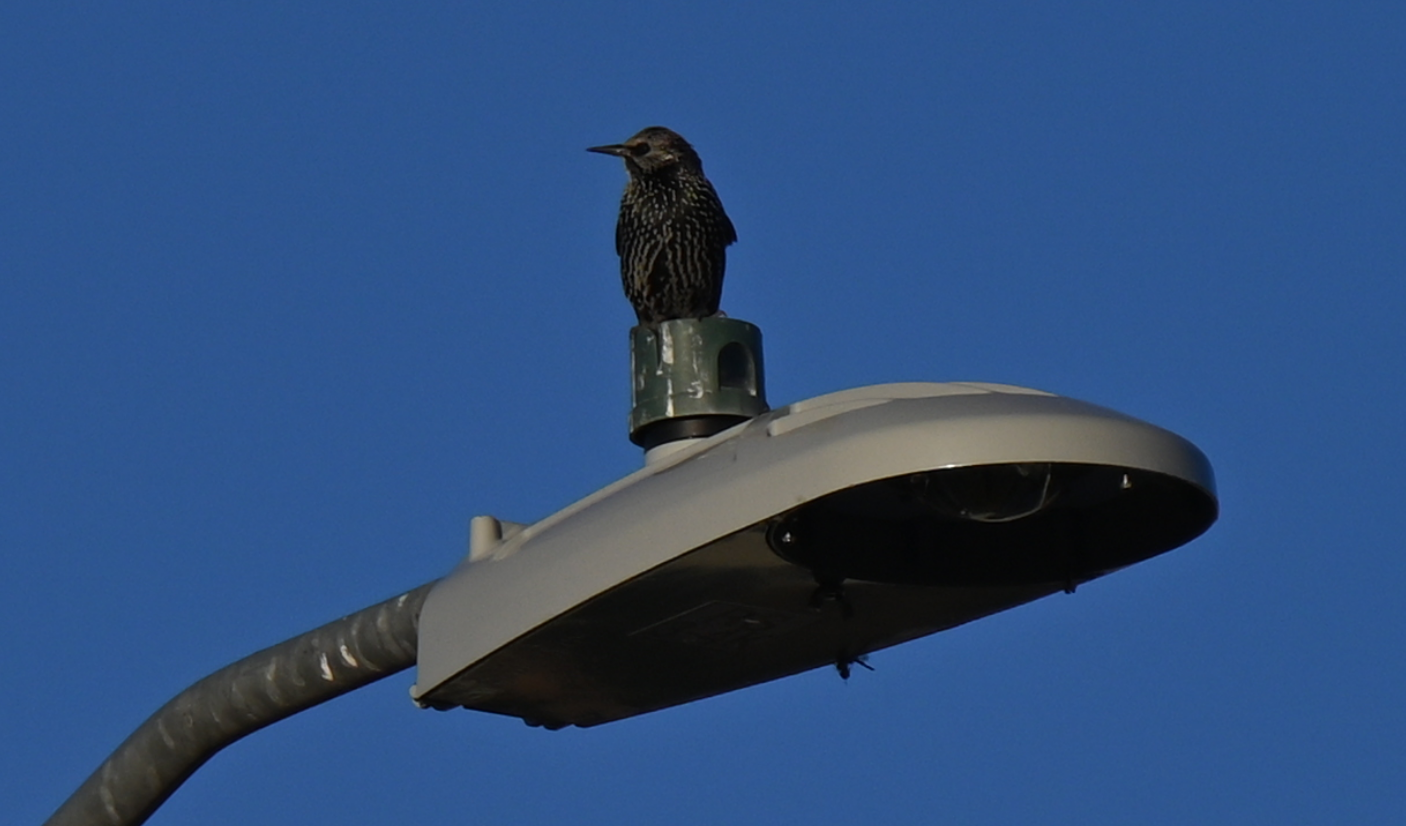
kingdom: Animalia
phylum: Chordata
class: Aves
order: Passeriformes
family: Sturnidae
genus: Sturnus
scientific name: Sturnus vulgaris
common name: Common starling
